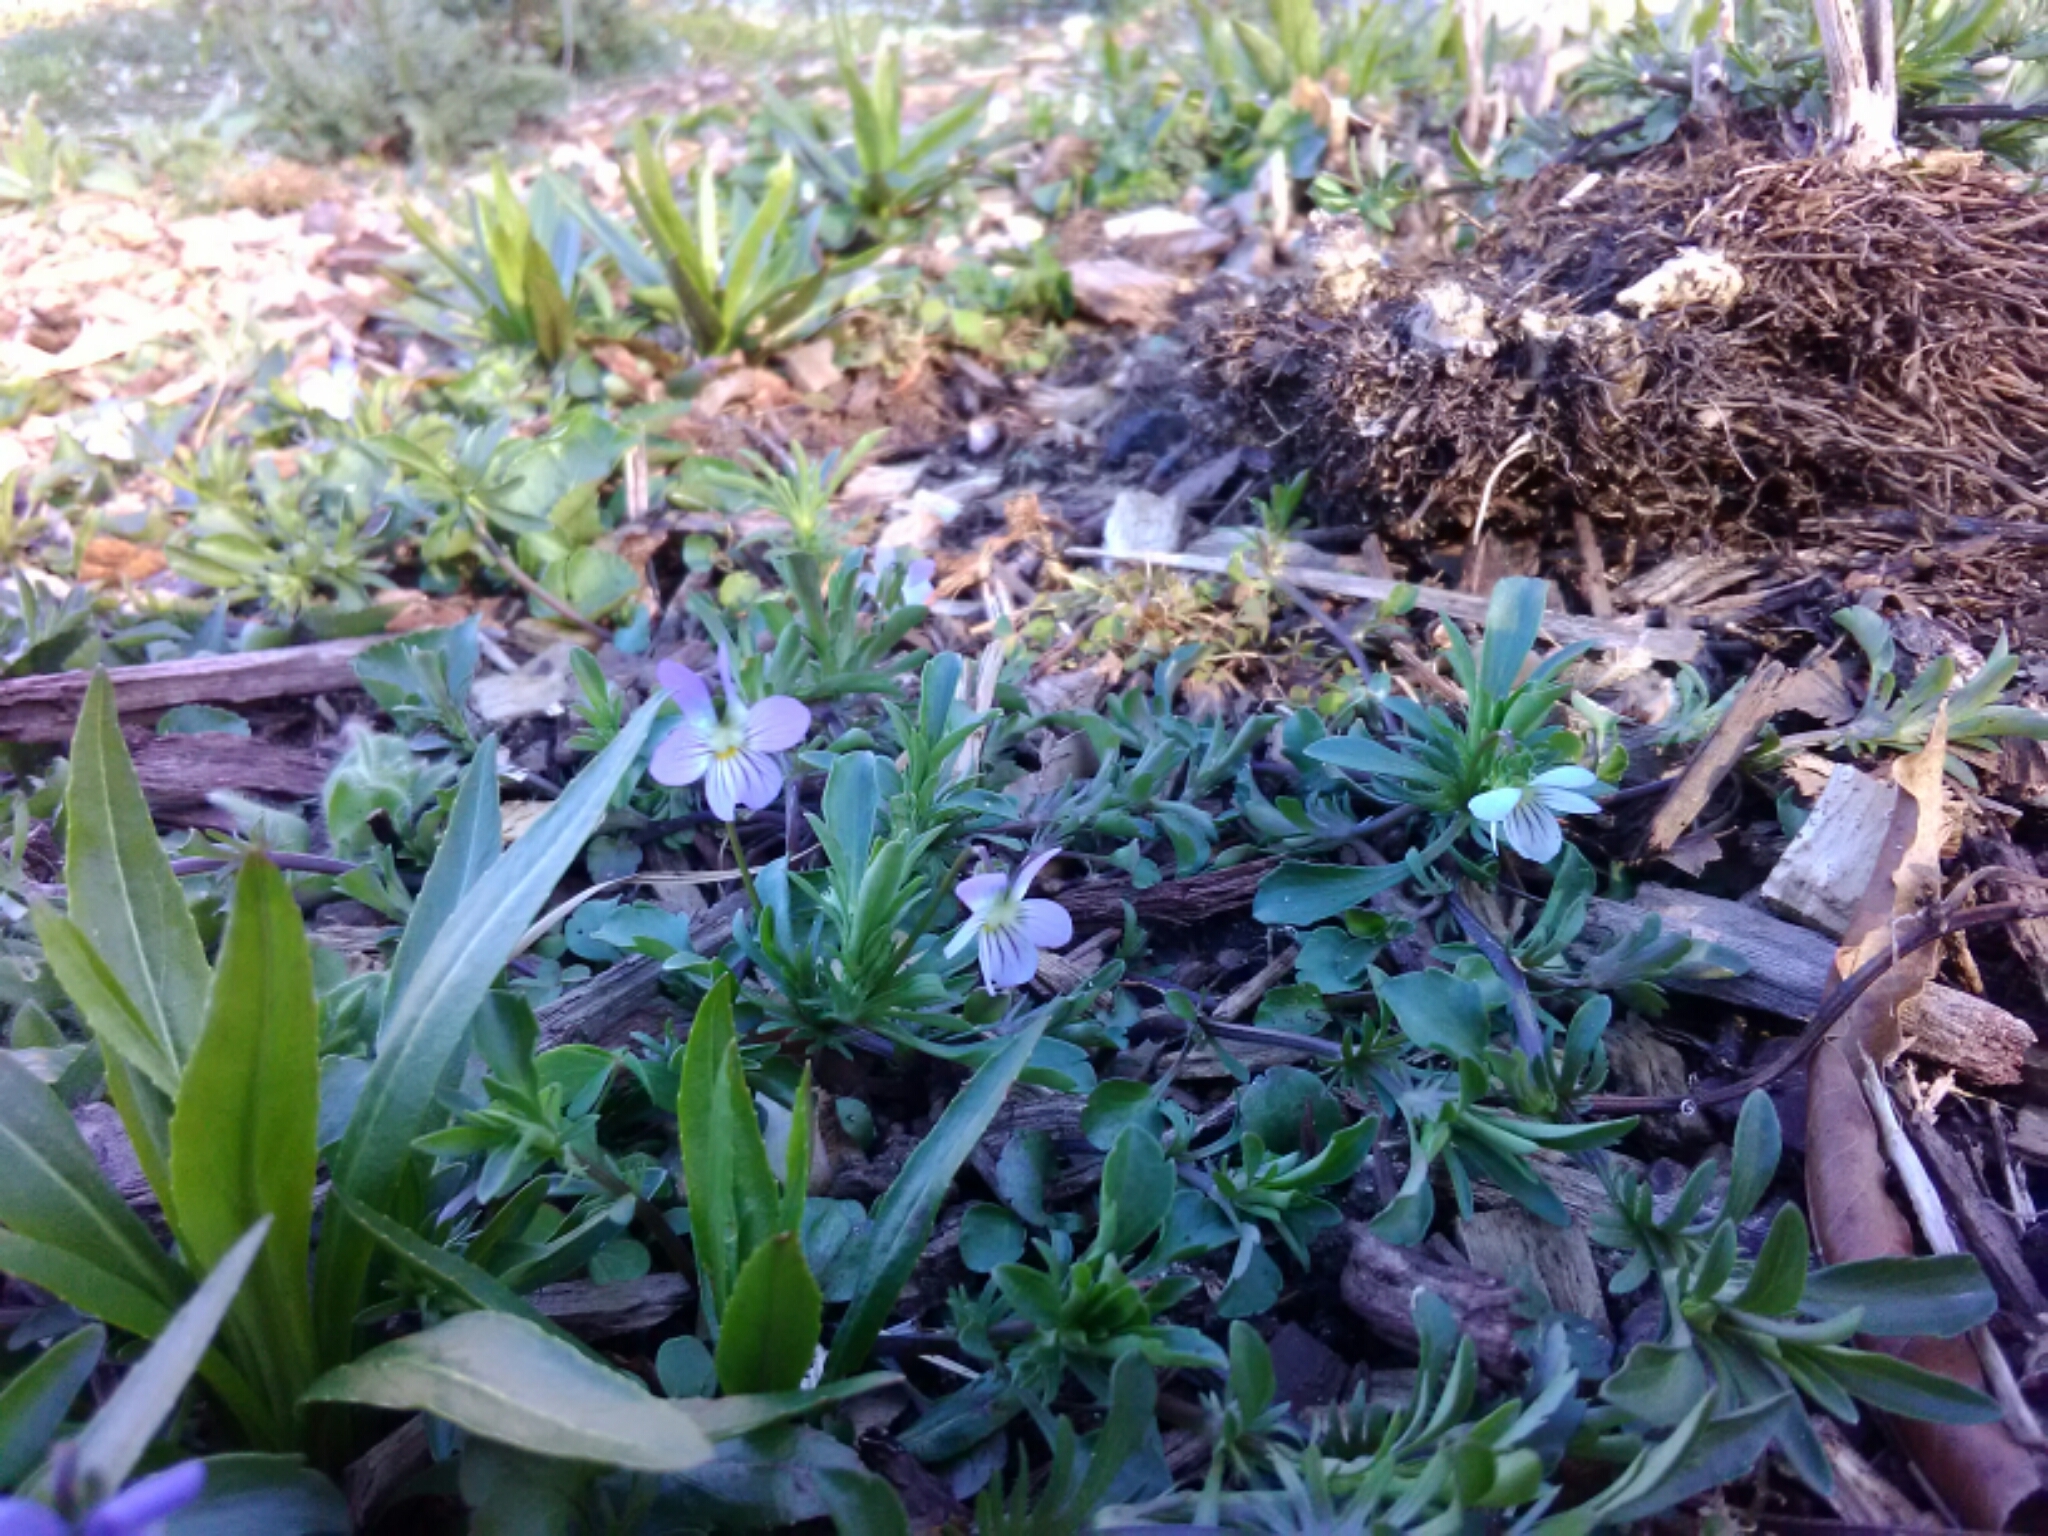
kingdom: Plantae
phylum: Tracheophyta
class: Magnoliopsida
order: Malpighiales
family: Violaceae
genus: Viola
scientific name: Viola rafinesquei
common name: American field pansy
